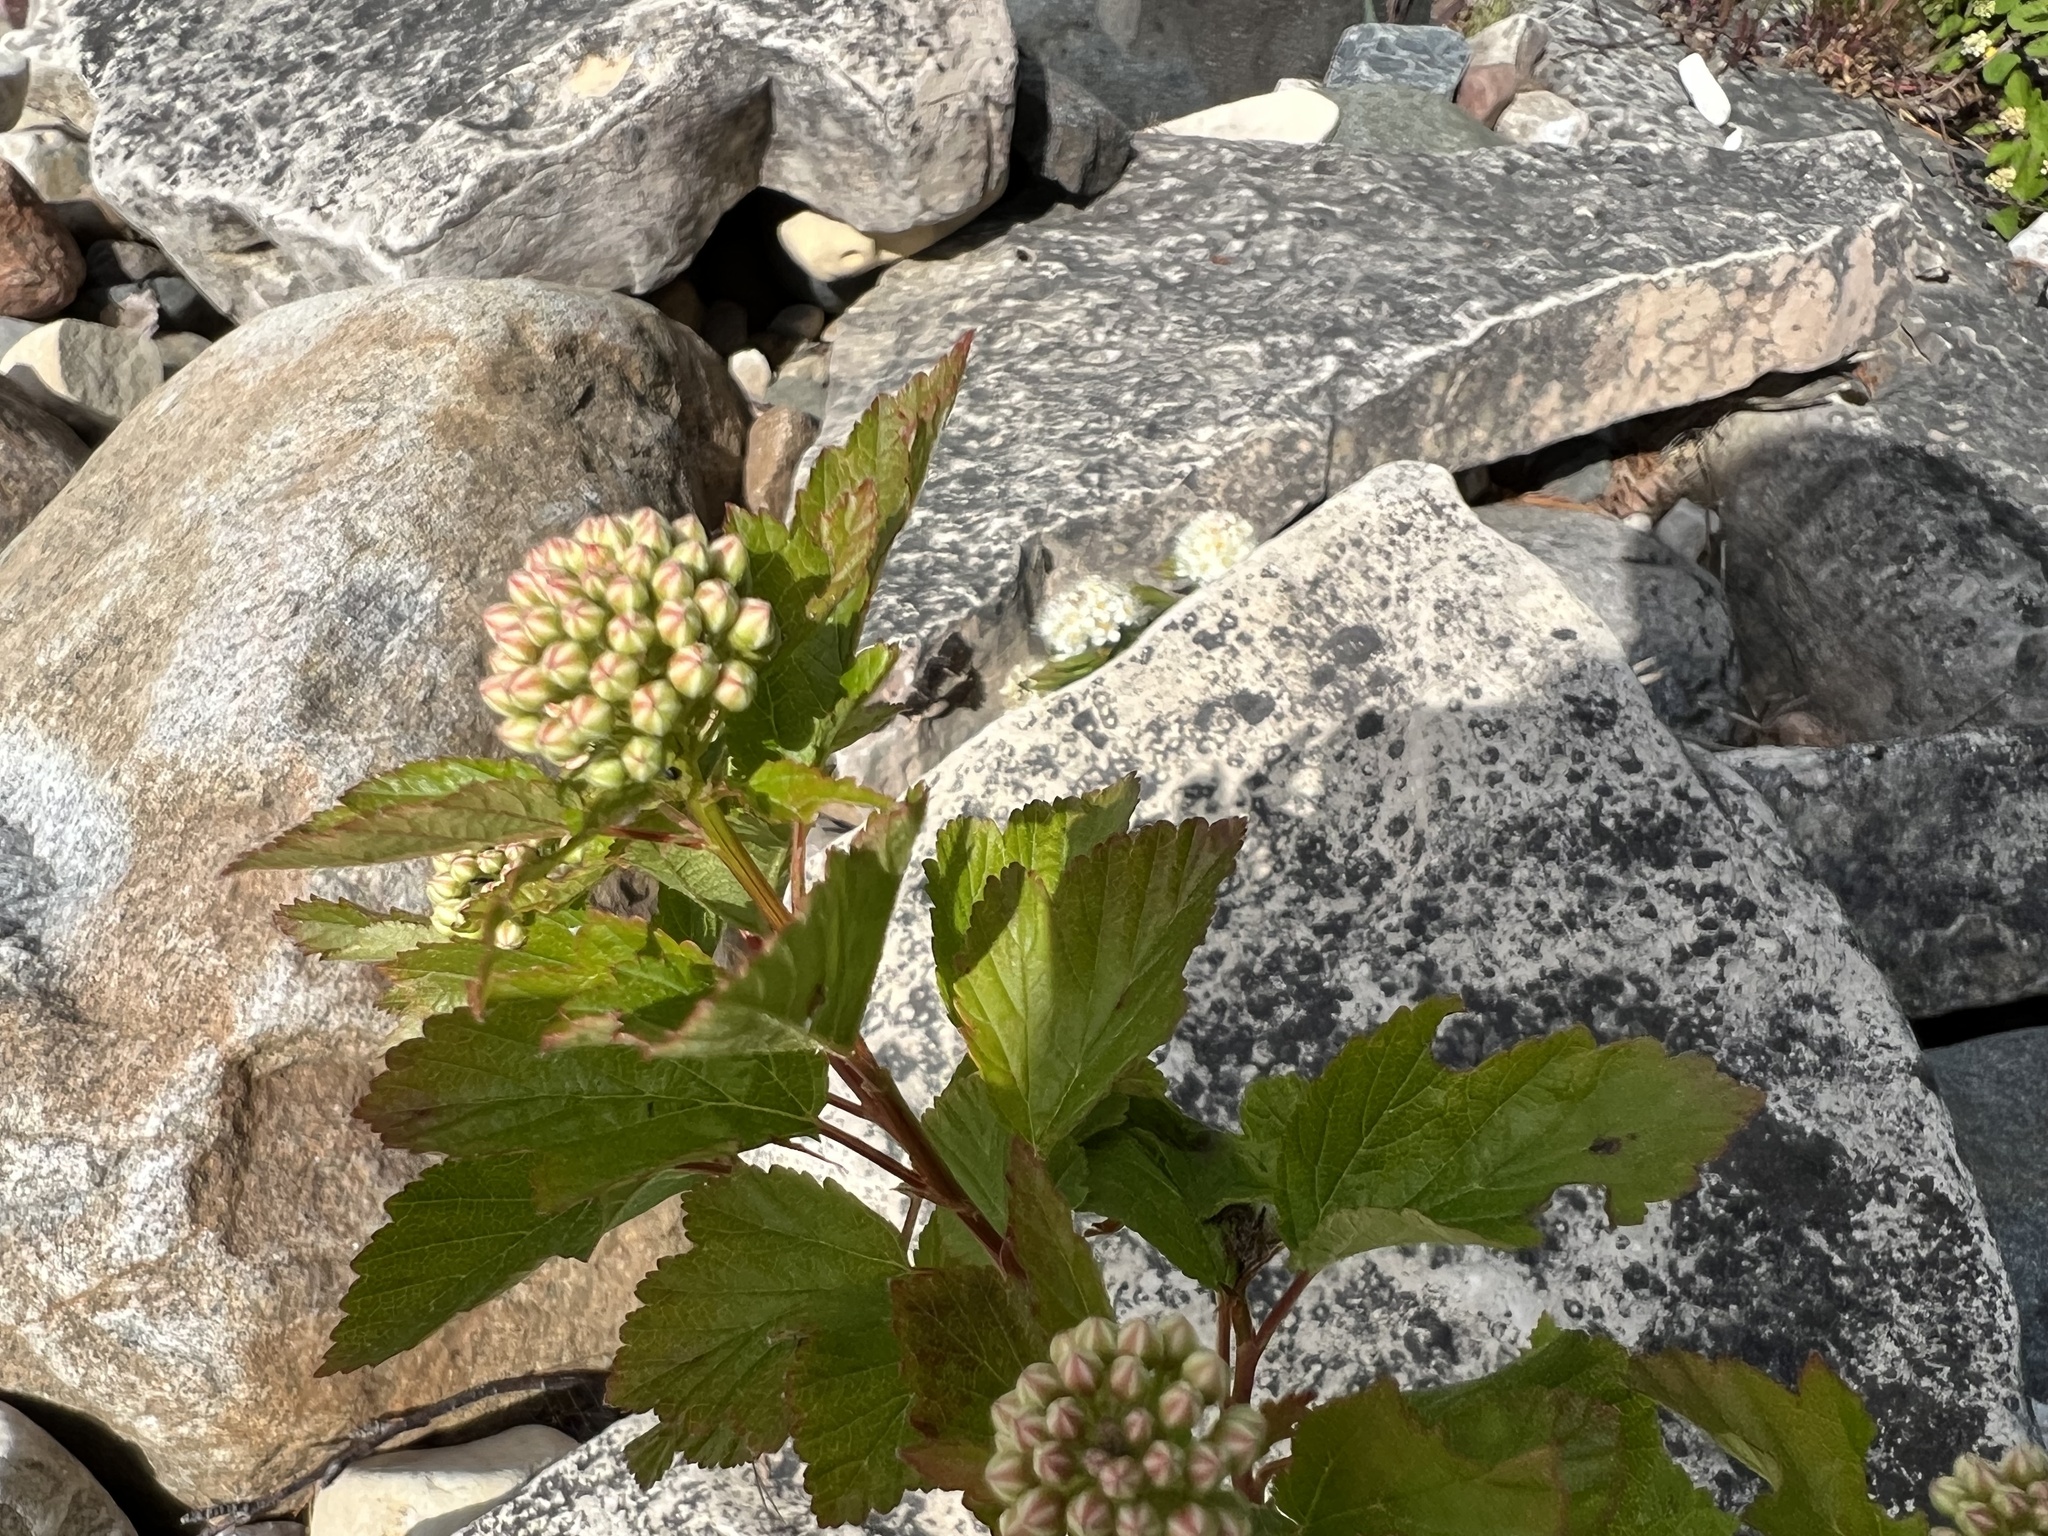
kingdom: Plantae
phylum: Tracheophyta
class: Magnoliopsida
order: Rosales
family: Rosaceae
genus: Physocarpus
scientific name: Physocarpus opulifolius
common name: Ninebark
